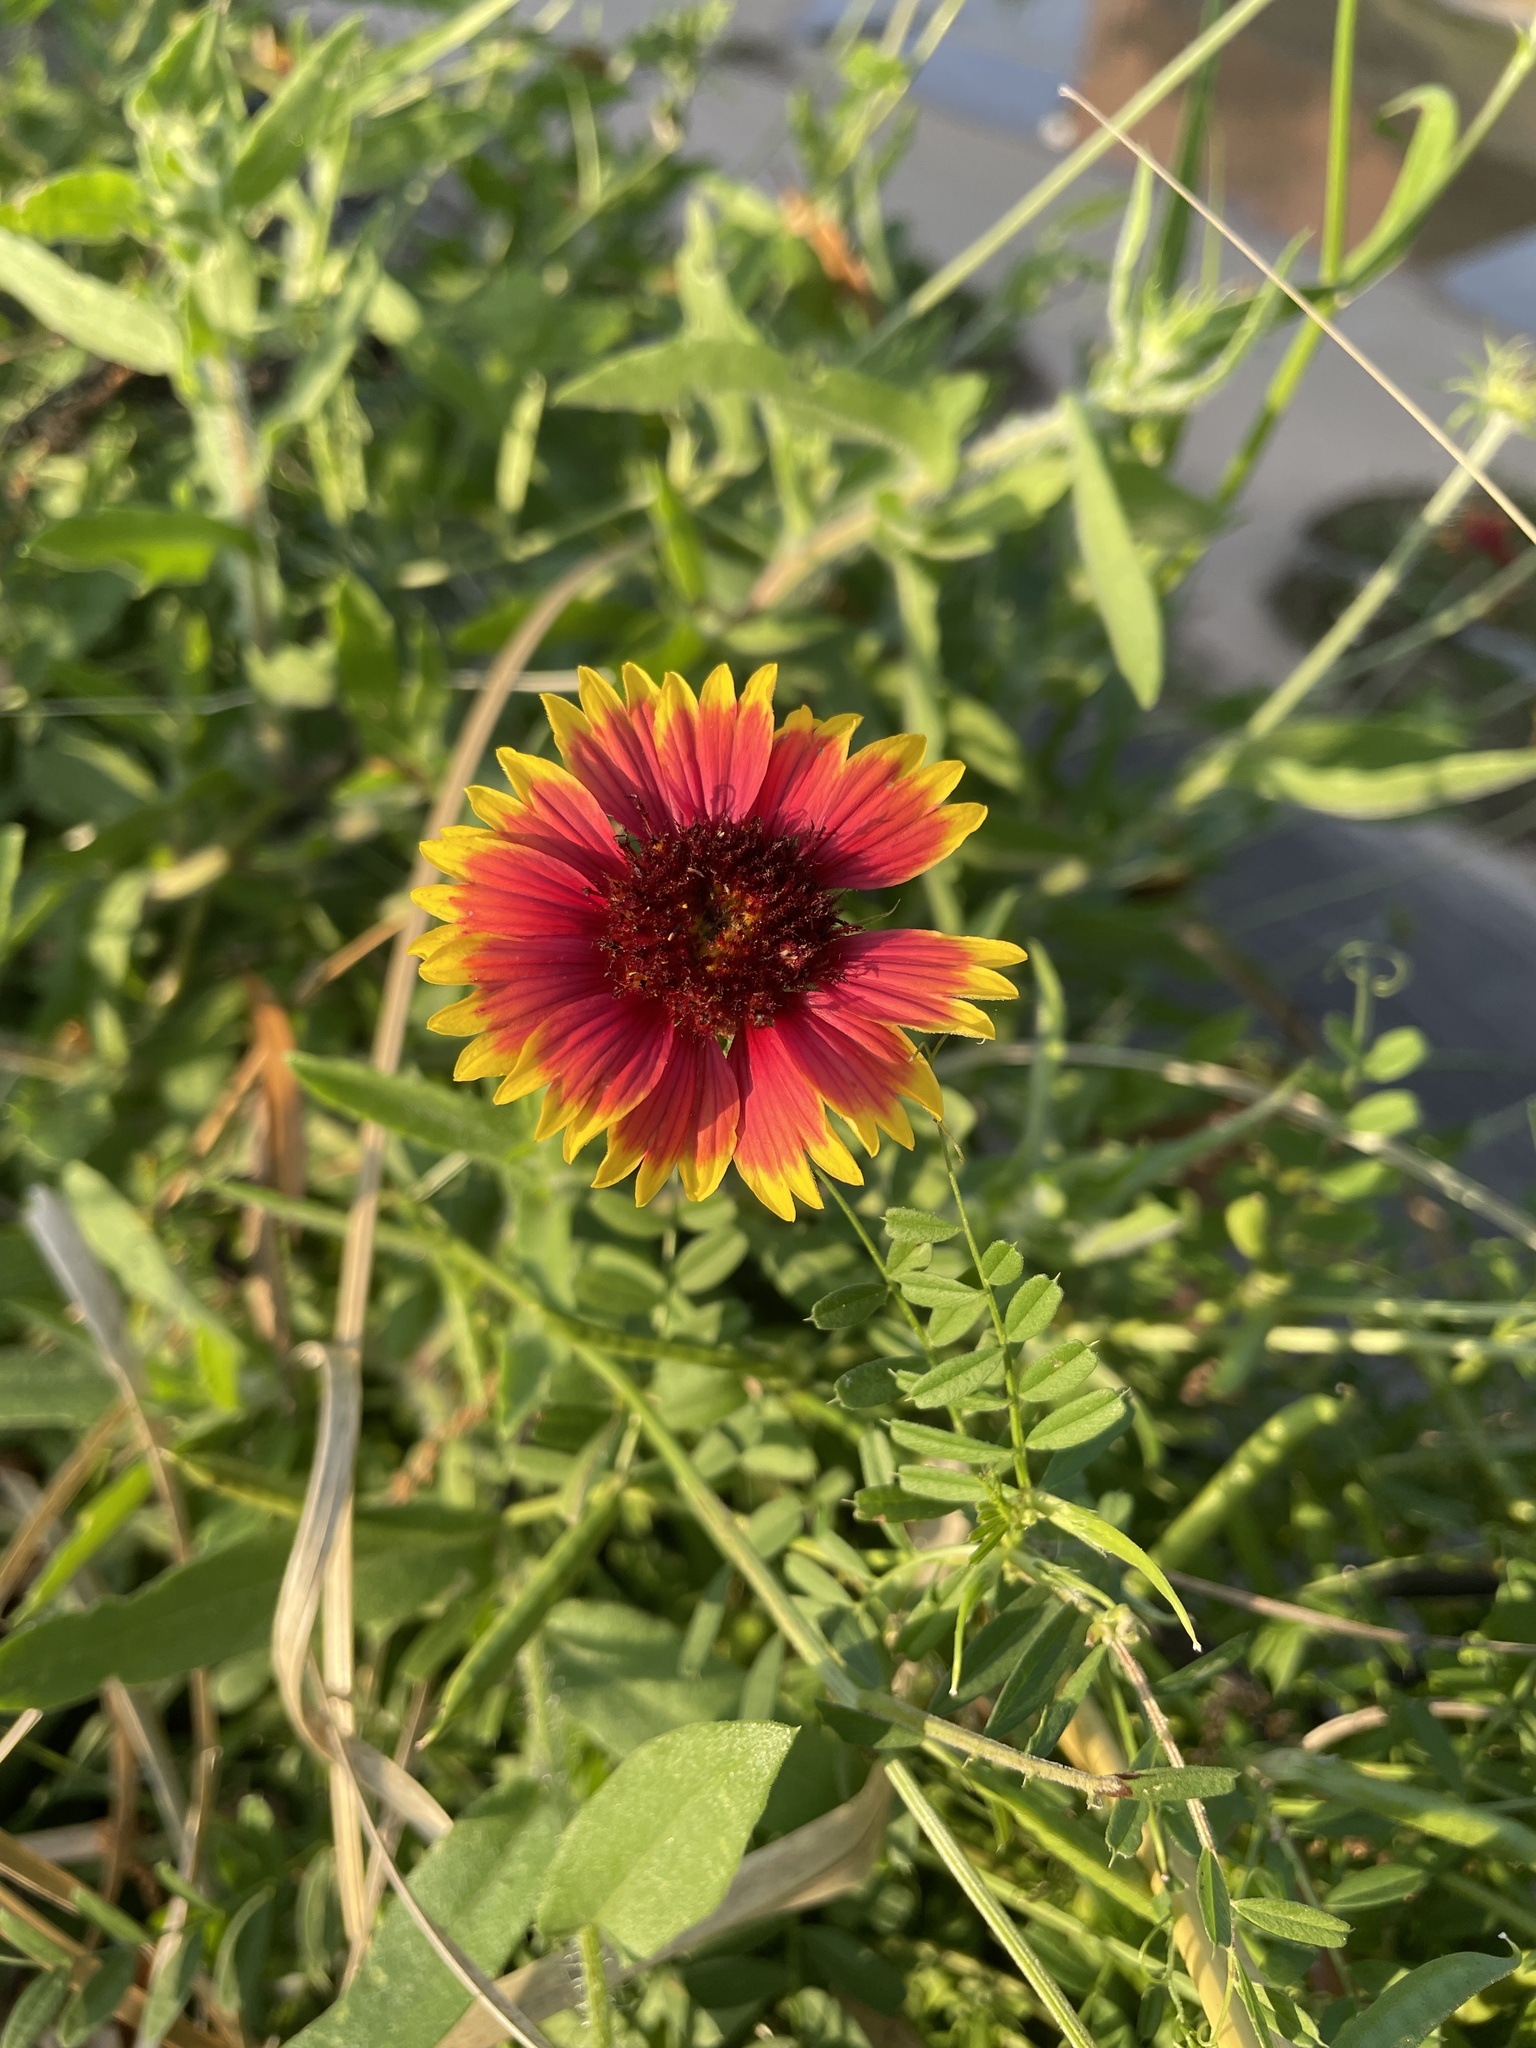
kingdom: Plantae
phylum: Tracheophyta
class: Magnoliopsida
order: Asterales
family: Asteraceae
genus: Gaillardia
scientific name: Gaillardia pulchella
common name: Firewheel
